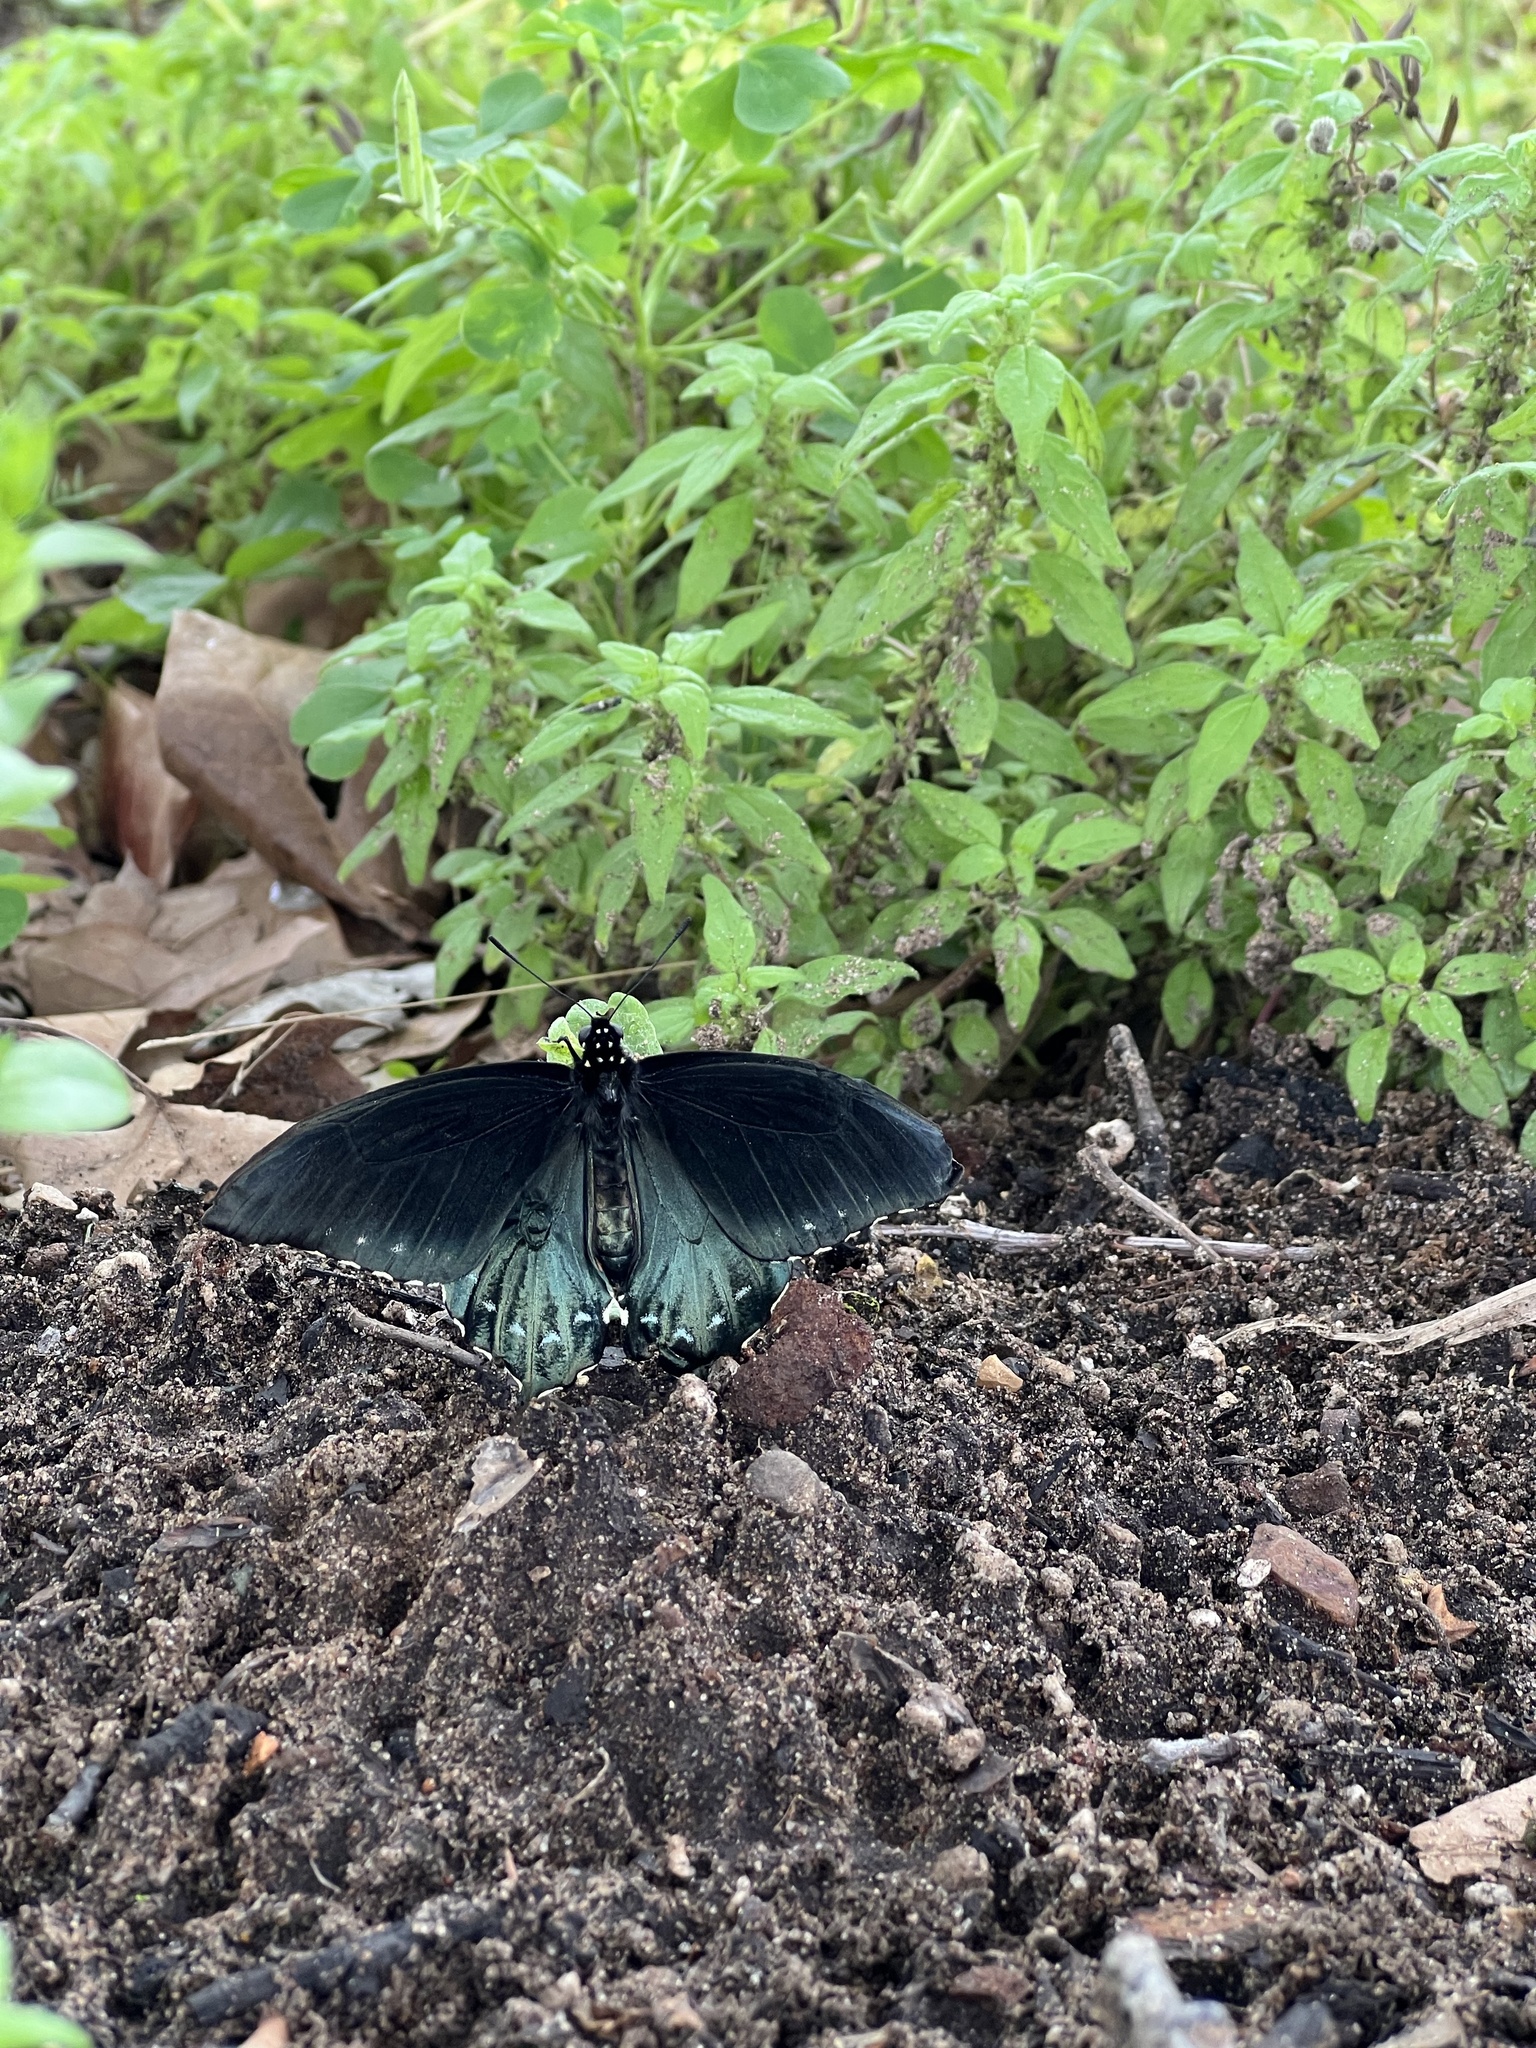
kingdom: Animalia
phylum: Arthropoda
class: Insecta
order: Lepidoptera
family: Papilionidae
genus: Battus
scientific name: Battus philenor
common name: Pipevine swallowtail
